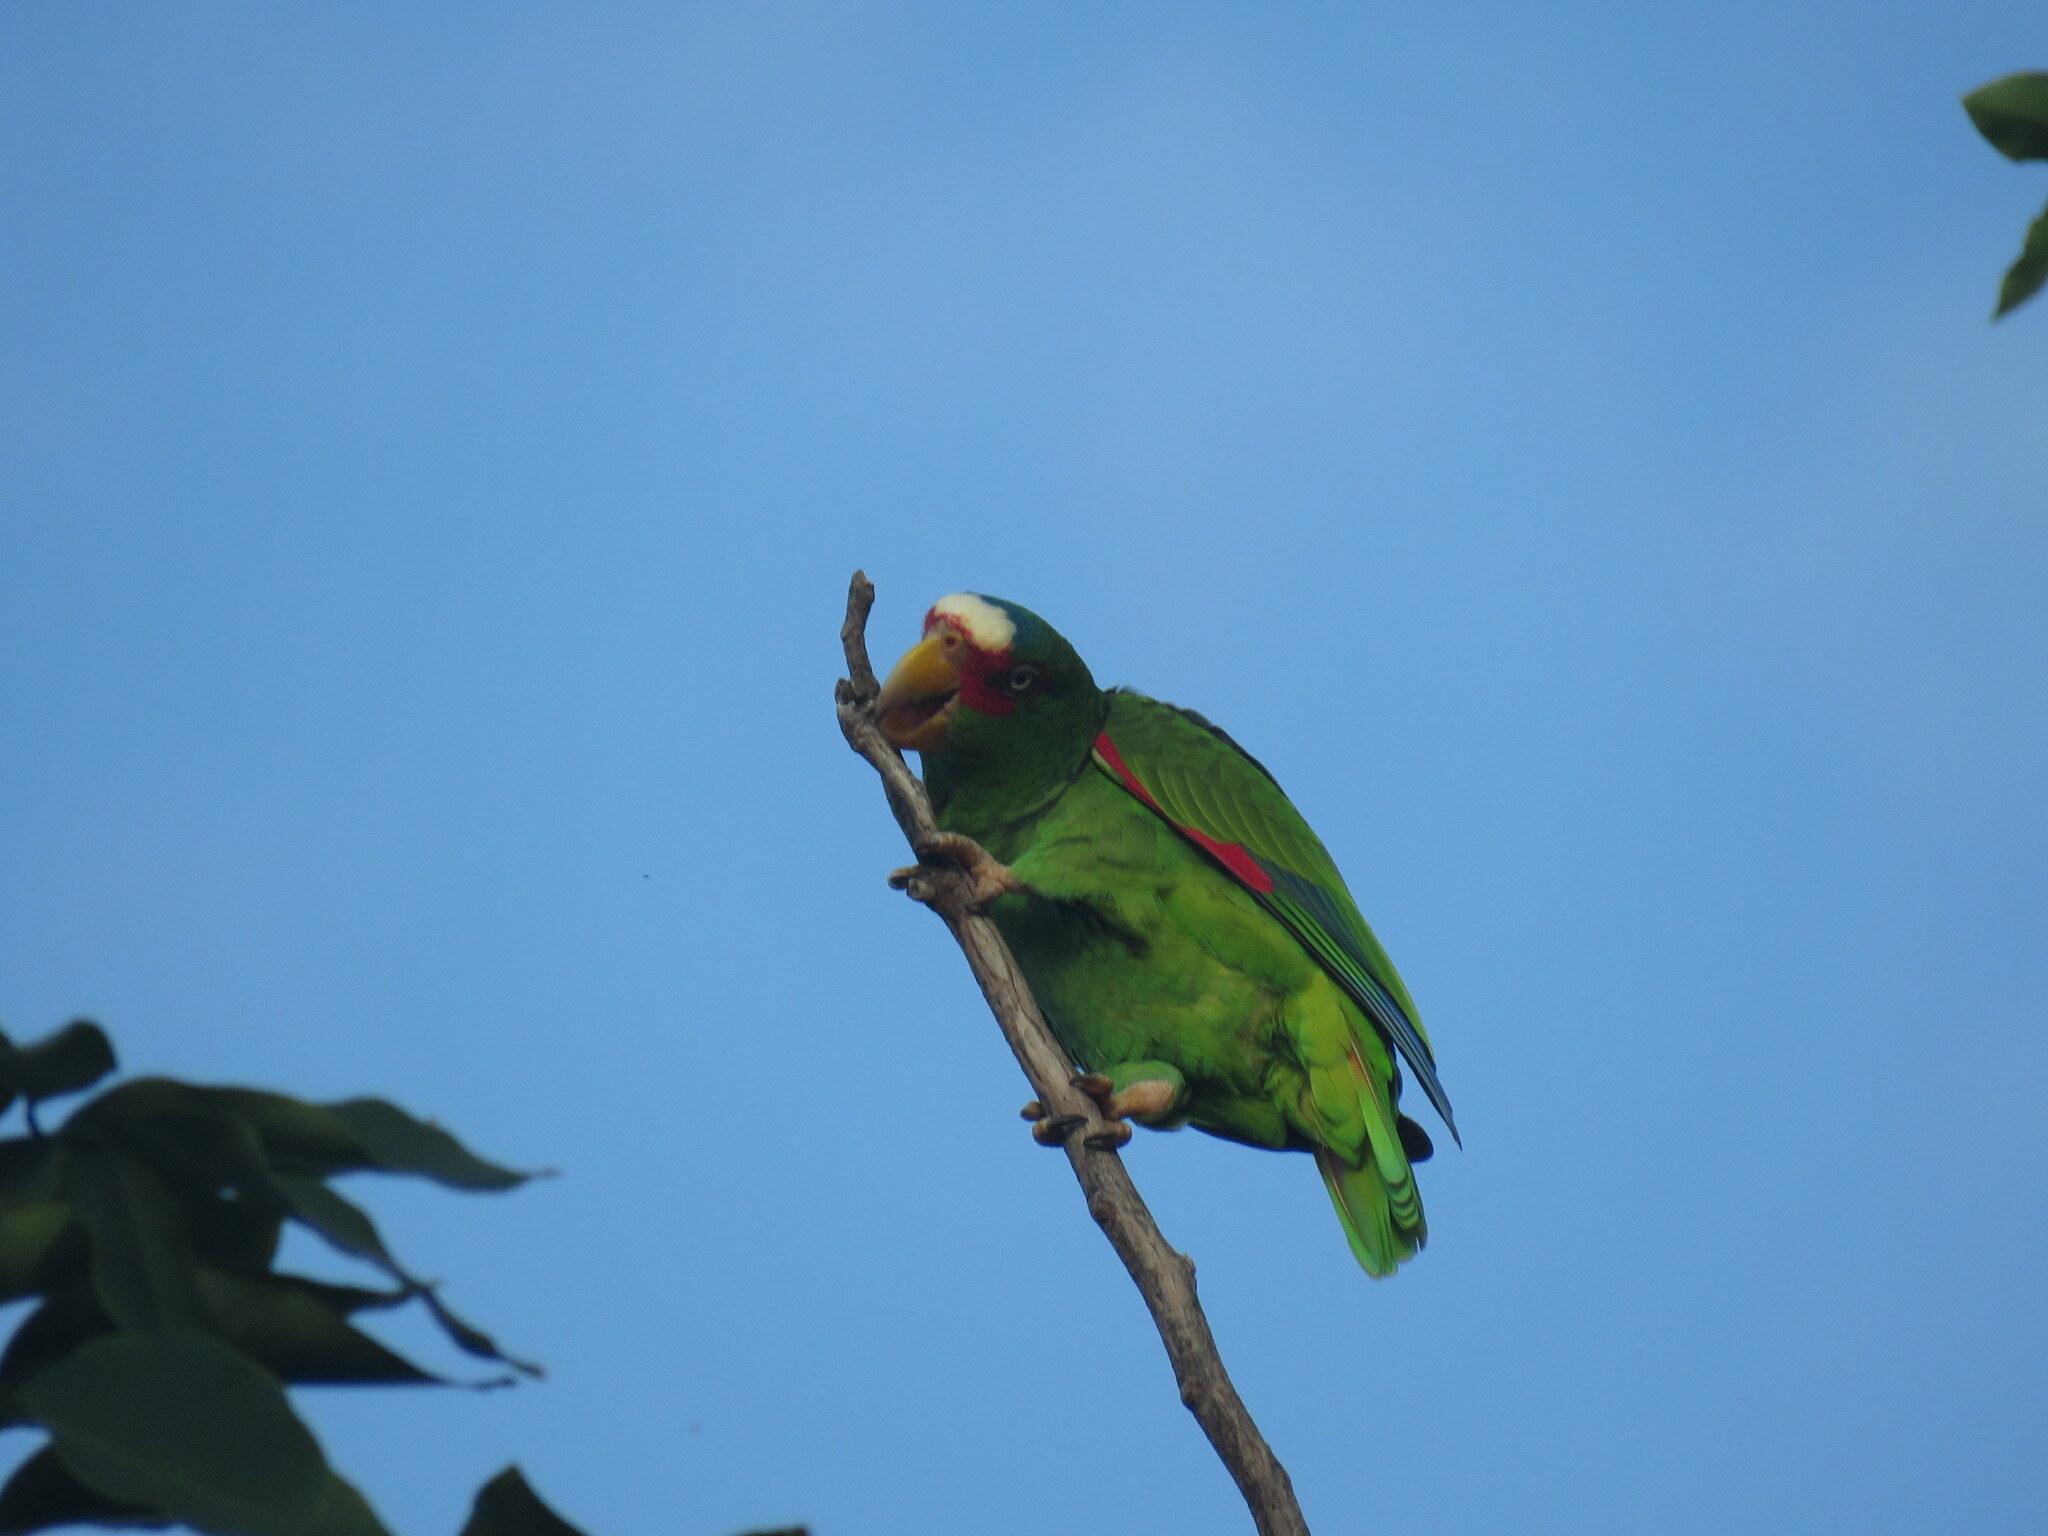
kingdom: Animalia
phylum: Chordata
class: Aves
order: Psittaciformes
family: Psittacidae
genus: Amazona
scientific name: Amazona albifrons
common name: White-fronted amazon
